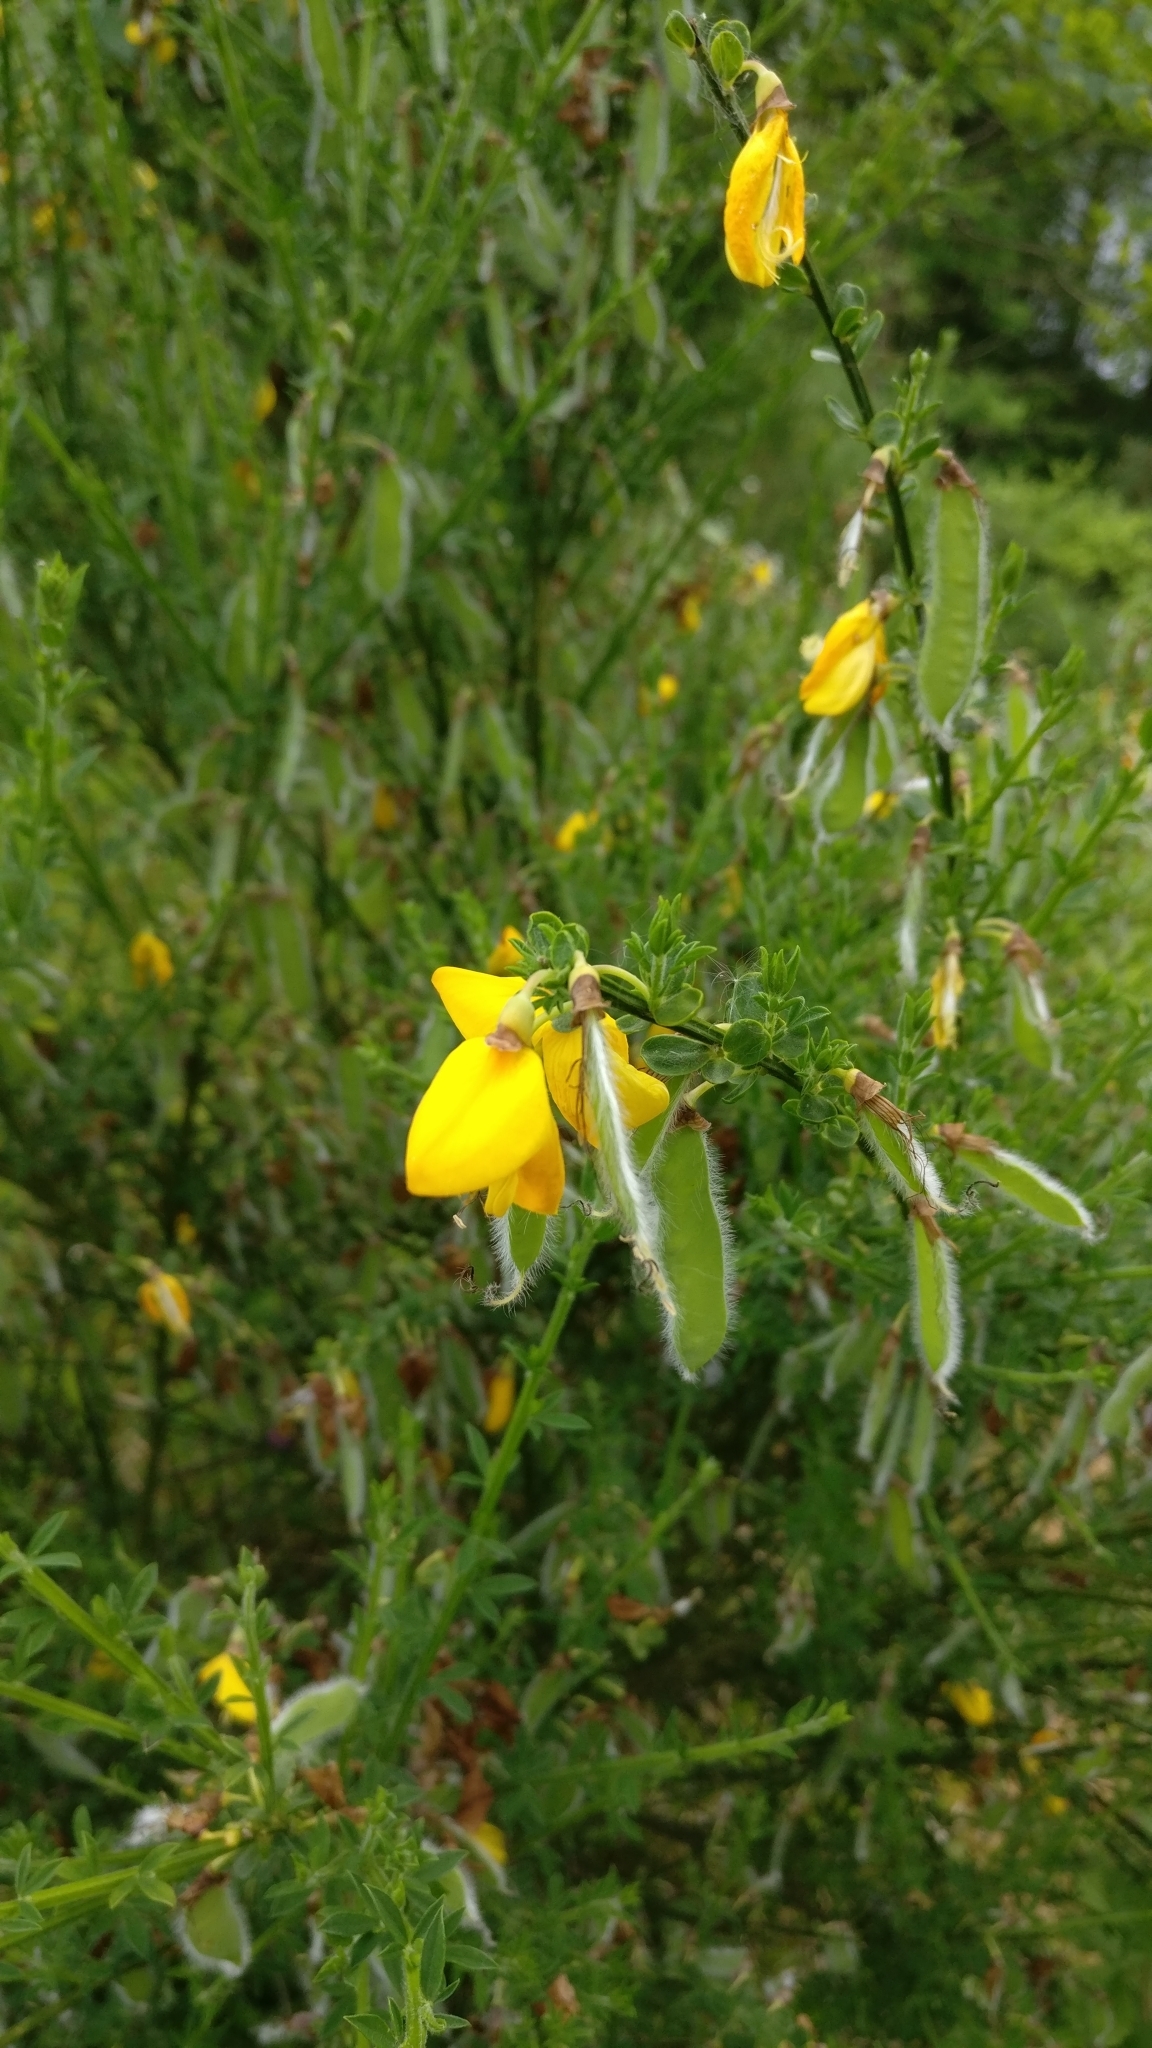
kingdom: Plantae
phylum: Tracheophyta
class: Magnoliopsida
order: Fabales
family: Fabaceae
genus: Cytisus
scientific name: Cytisus scoparius
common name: Scotch broom
